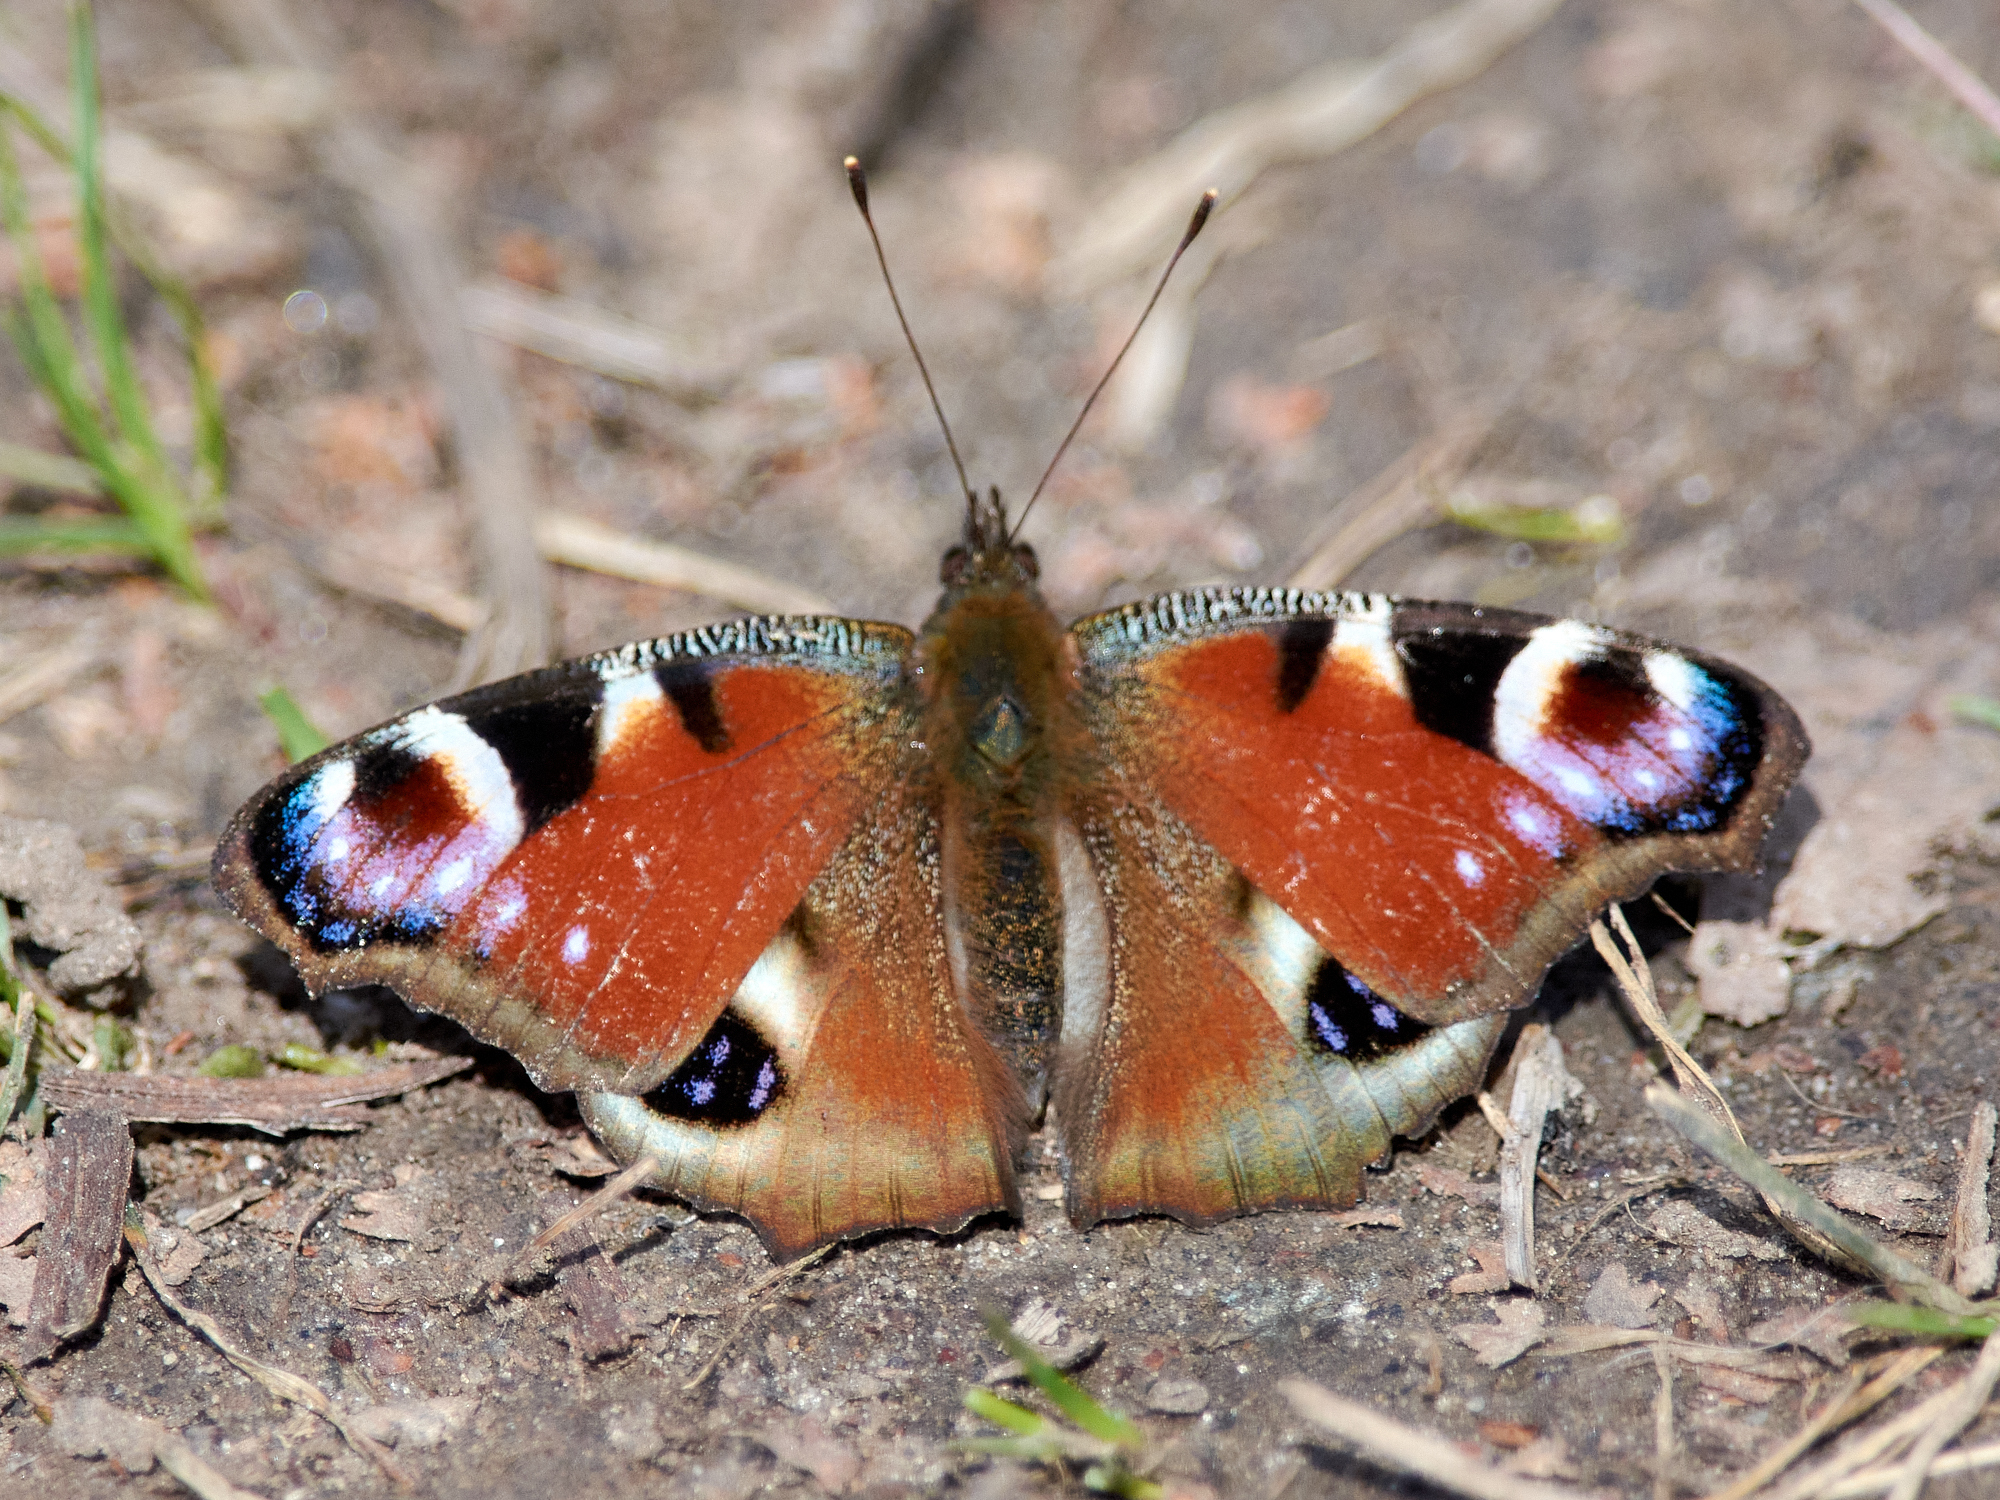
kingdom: Animalia
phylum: Arthropoda
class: Insecta
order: Lepidoptera
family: Nymphalidae
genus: Aglais
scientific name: Aglais io
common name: Peacock
